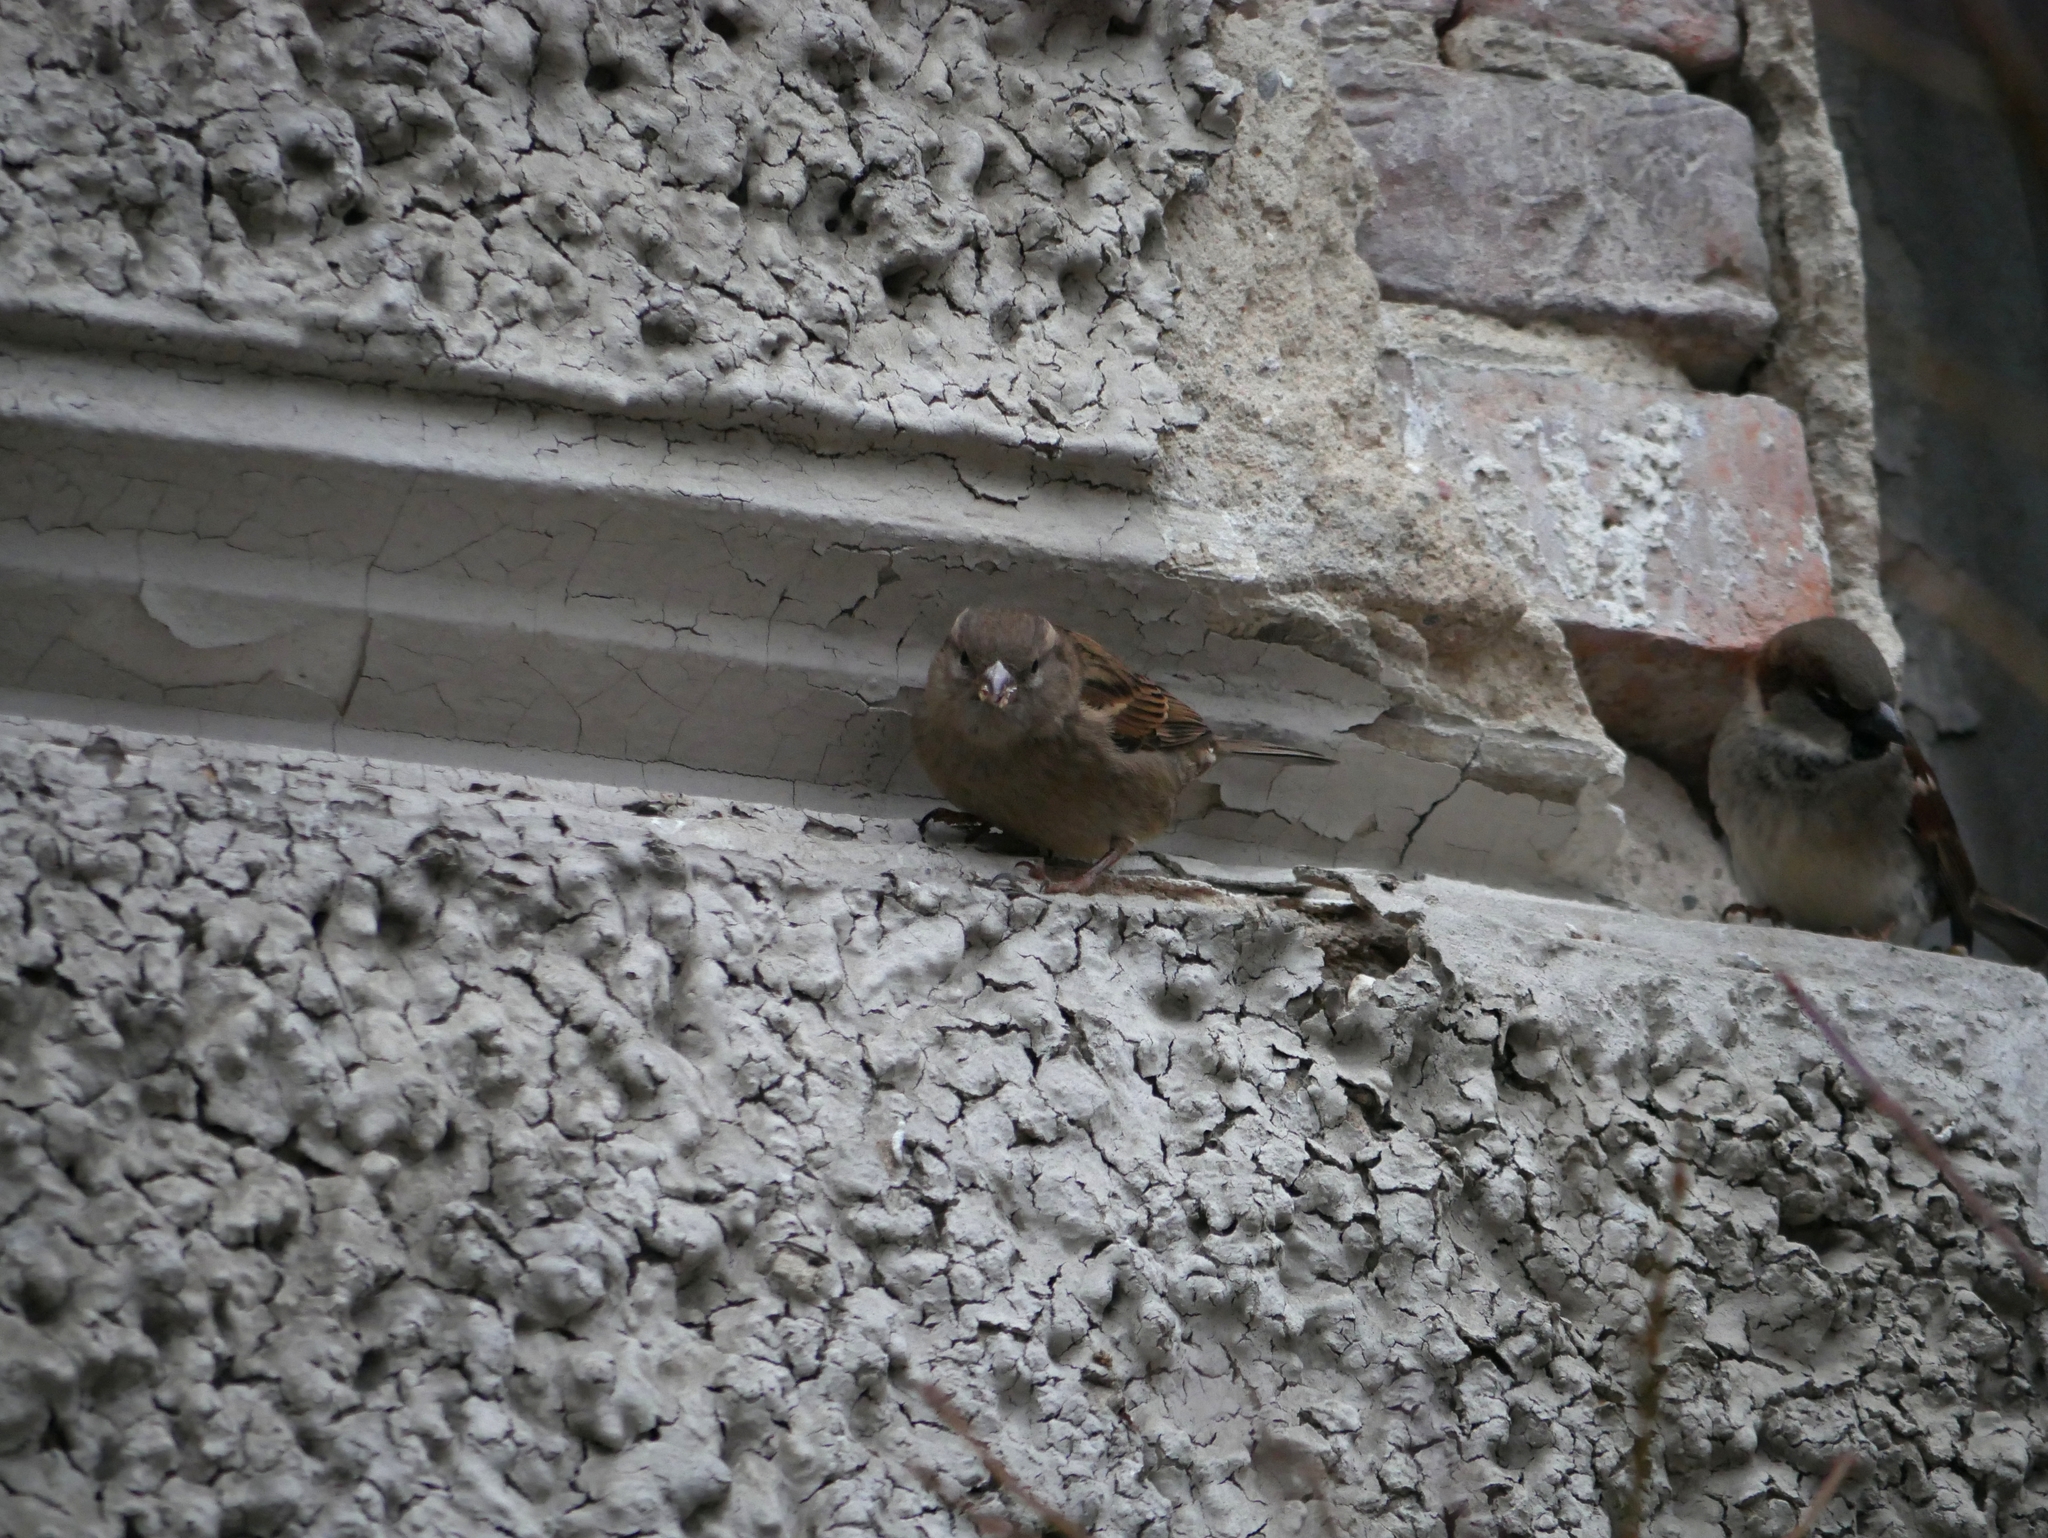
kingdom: Animalia
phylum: Chordata
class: Aves
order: Passeriformes
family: Passeridae
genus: Passer
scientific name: Passer domesticus
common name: House sparrow
